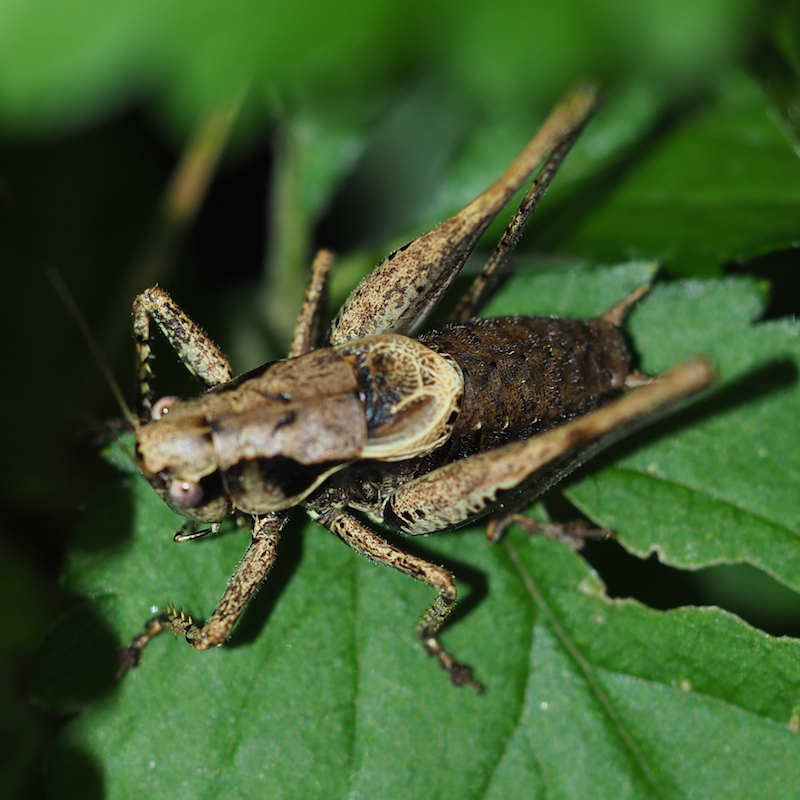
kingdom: Animalia
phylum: Arthropoda
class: Insecta
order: Orthoptera
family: Tettigoniidae
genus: Pholidoptera
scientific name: Pholidoptera griseoaptera
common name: Dark bush-cricket
